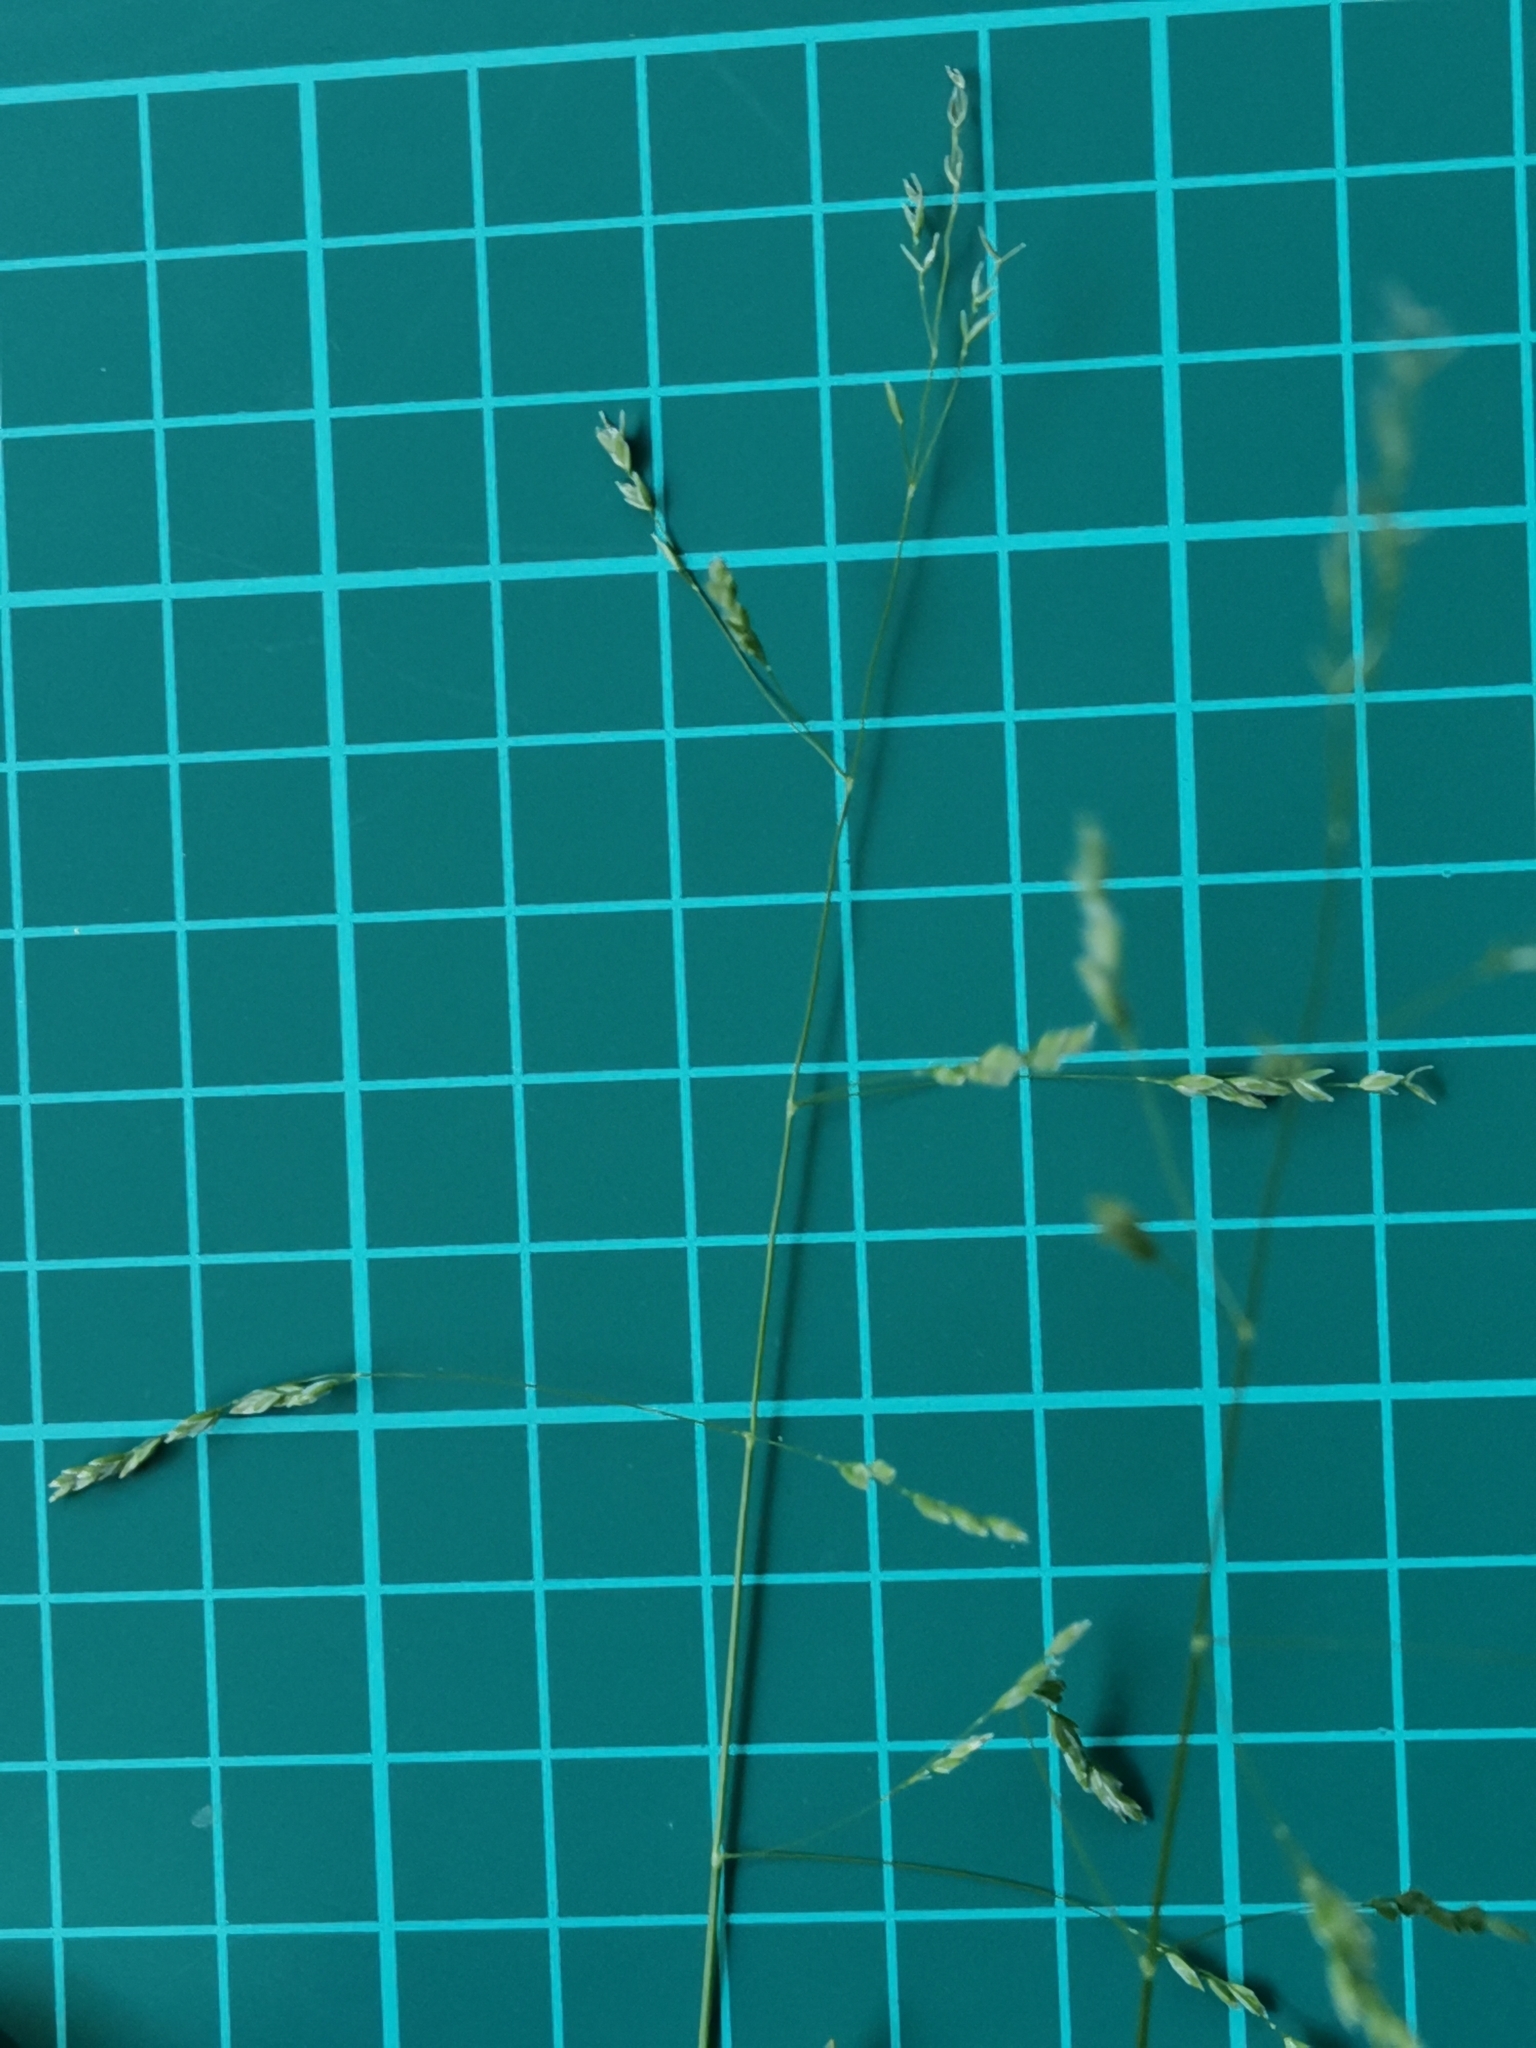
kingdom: Plantae
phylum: Tracheophyta
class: Liliopsida
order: Poales
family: Poaceae
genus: Poa
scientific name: Poa acroleuca
